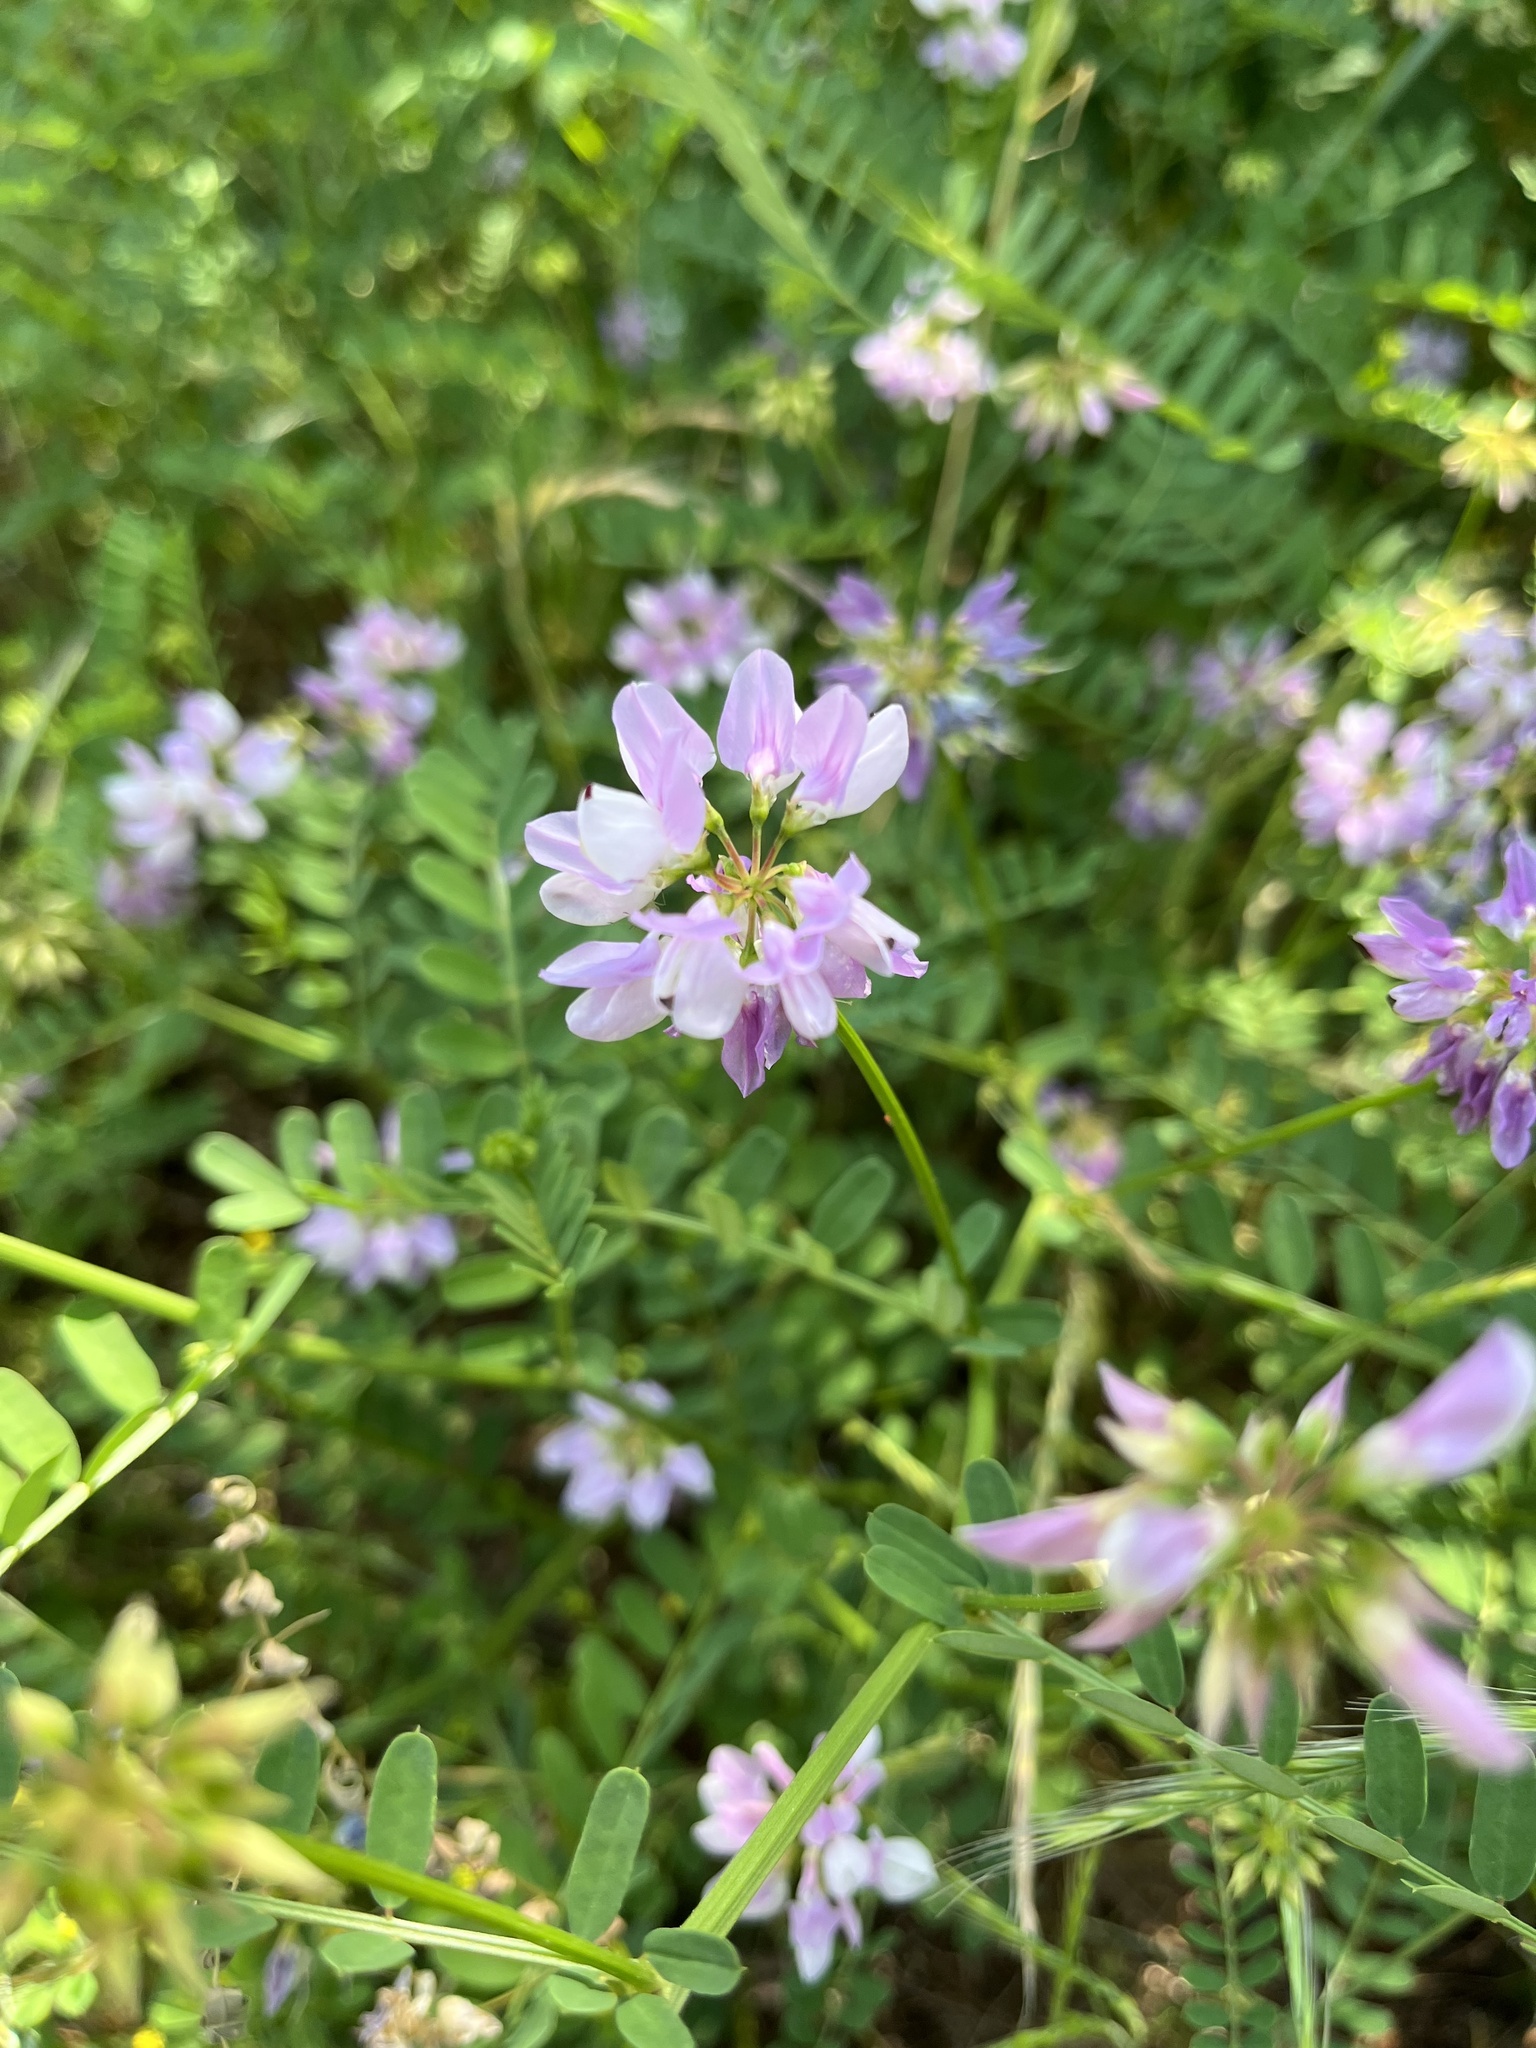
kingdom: Plantae
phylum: Tracheophyta
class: Magnoliopsida
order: Fabales
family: Fabaceae
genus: Coronilla
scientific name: Coronilla varia
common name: Crownvetch
